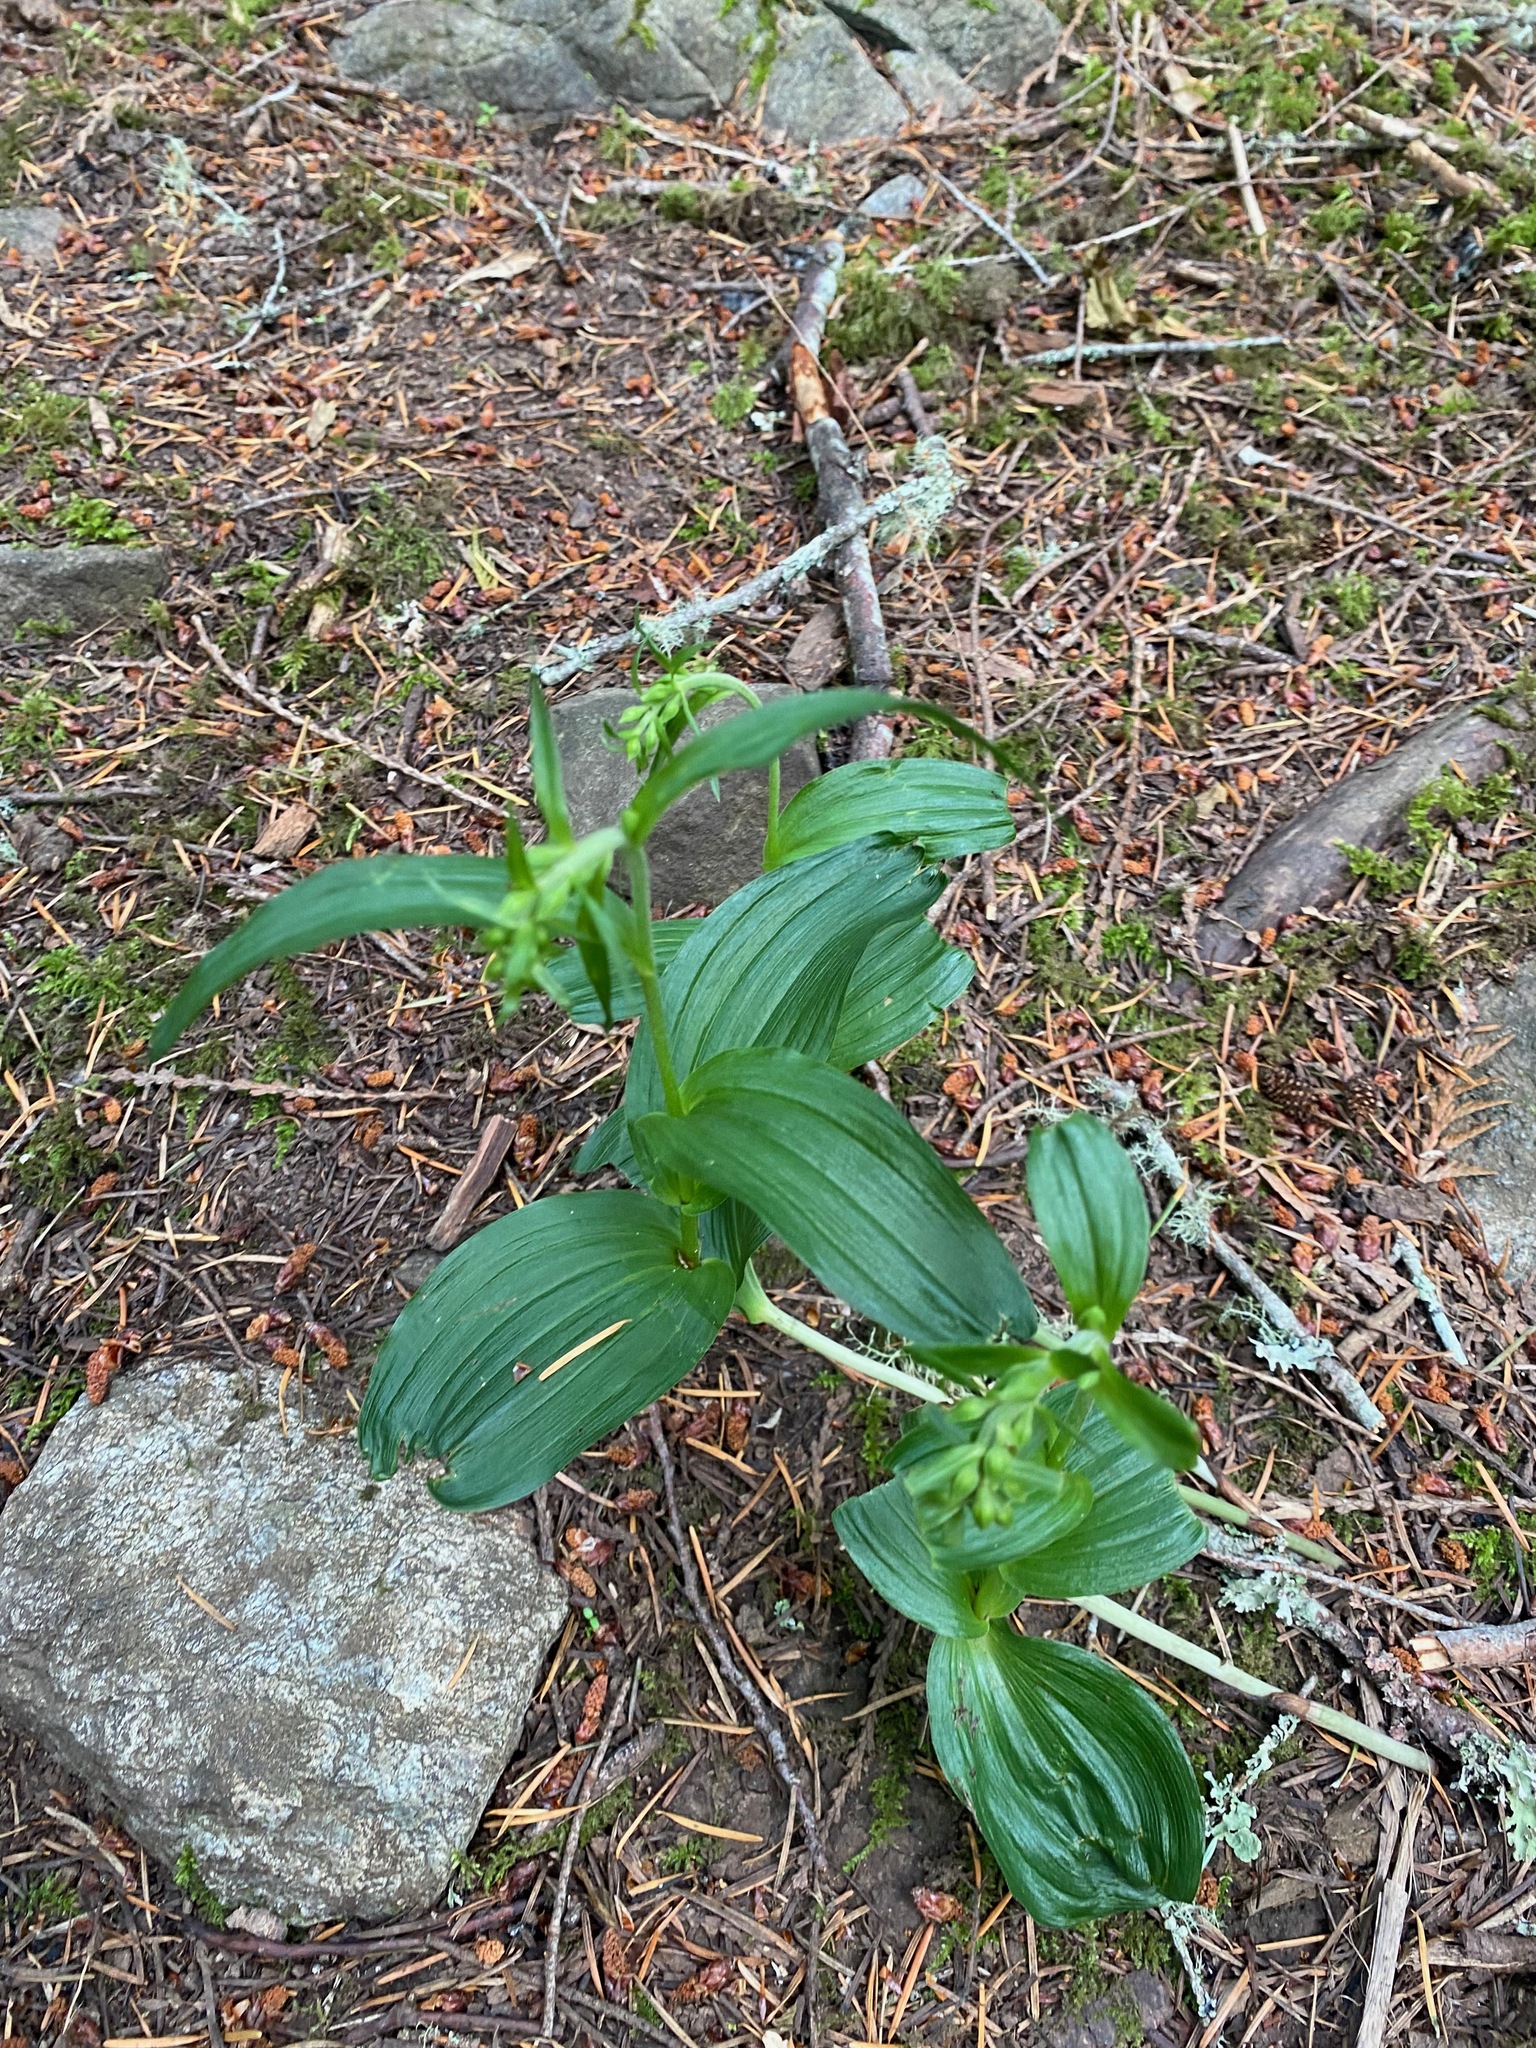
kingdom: Plantae
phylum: Tracheophyta
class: Liliopsida
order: Asparagales
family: Orchidaceae
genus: Epipactis
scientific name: Epipactis helleborine
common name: Broad-leaved helleborine
